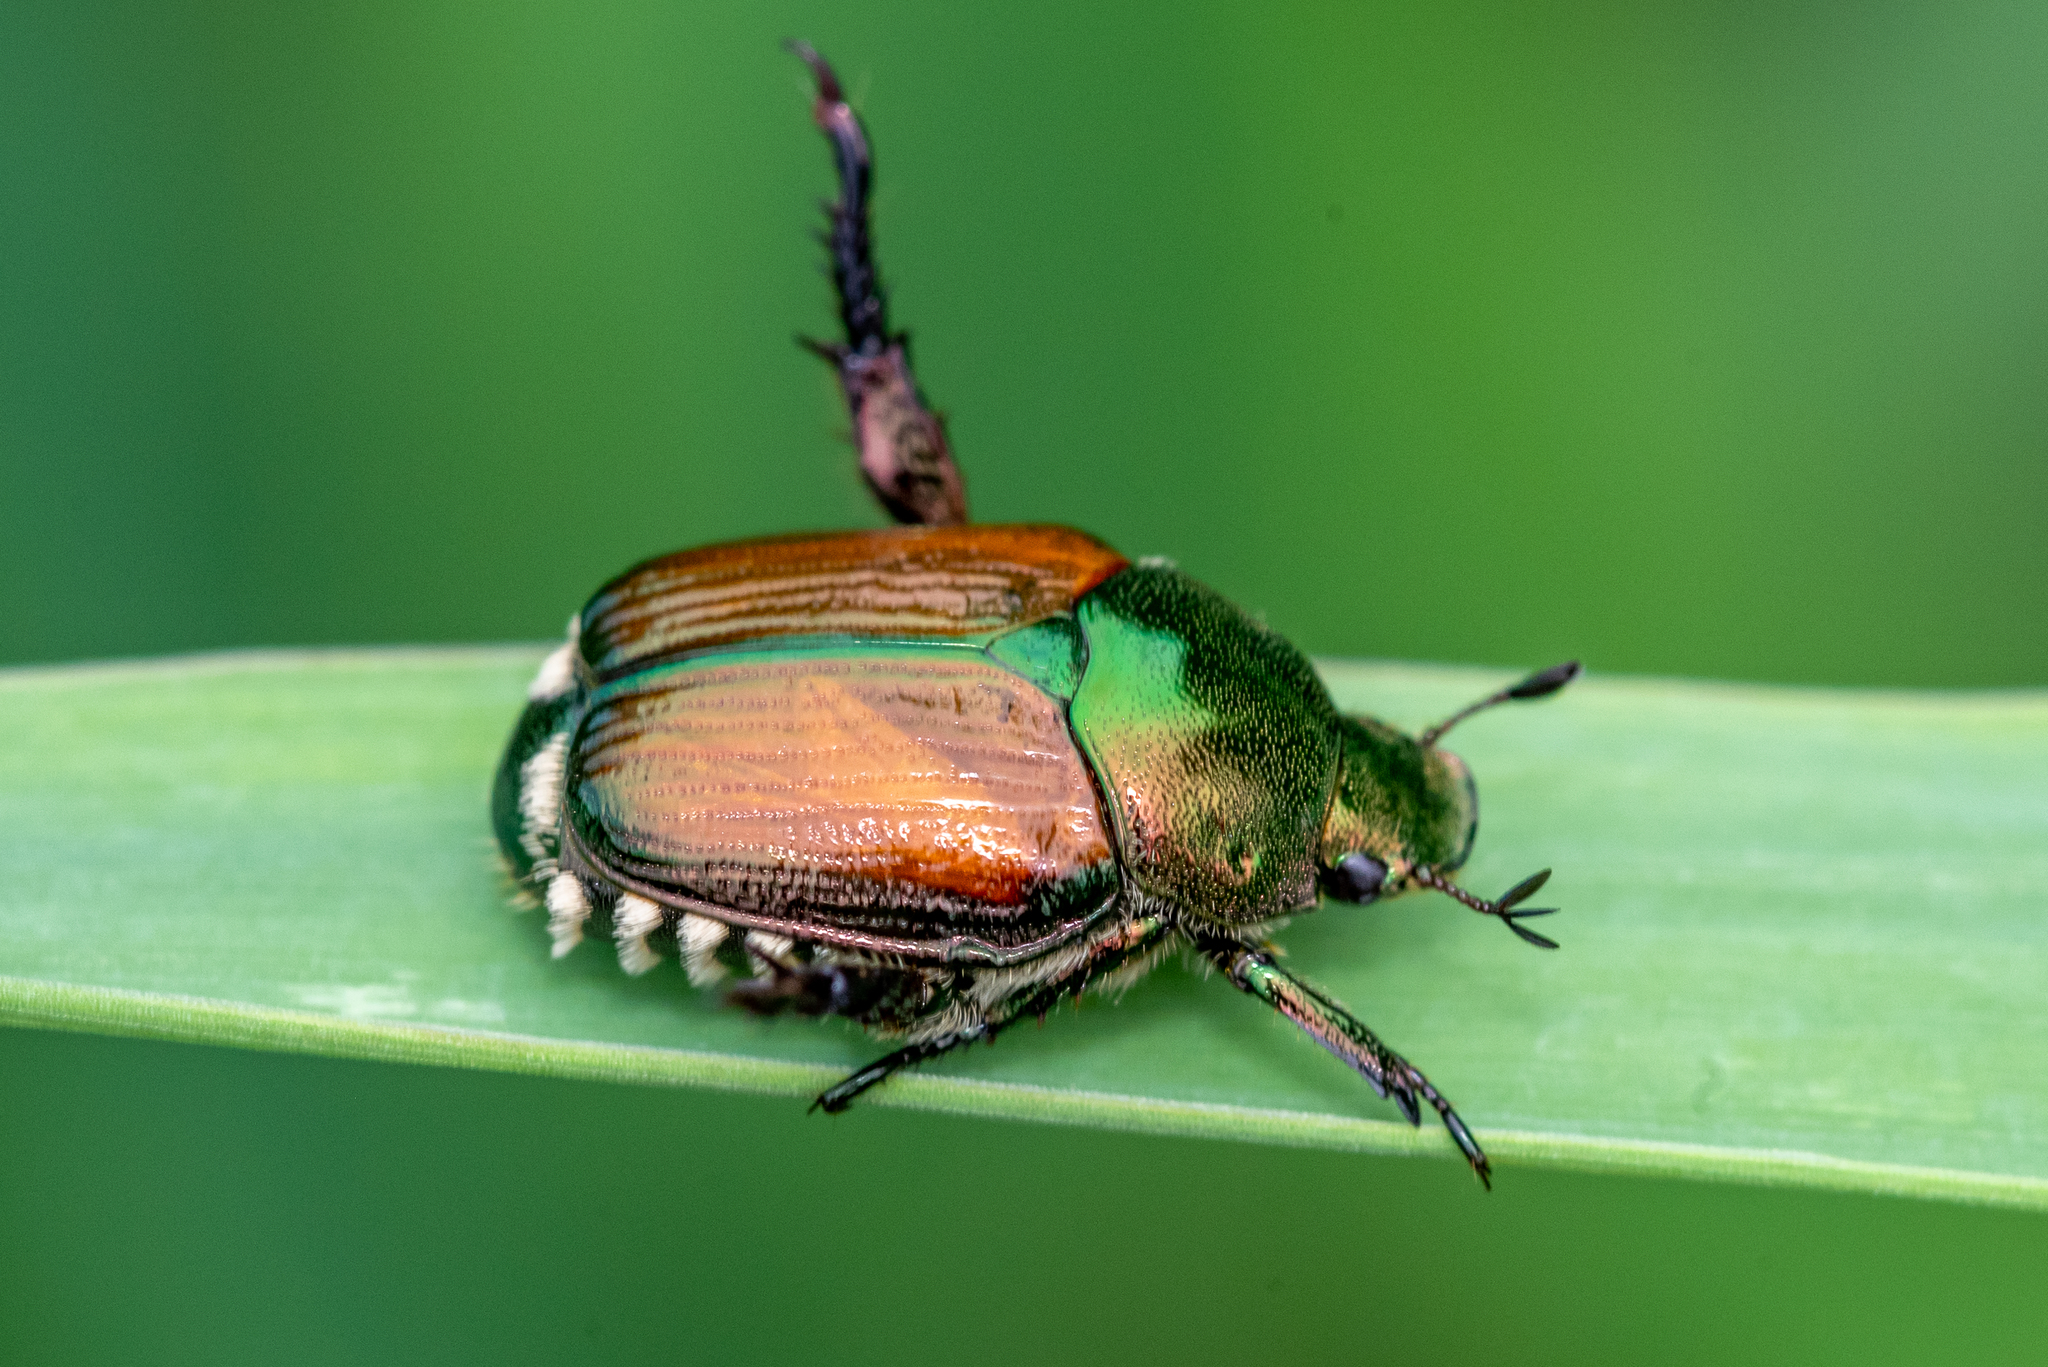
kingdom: Animalia
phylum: Arthropoda
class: Insecta
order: Coleoptera
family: Scarabaeidae
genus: Popillia
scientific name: Popillia japonica
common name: Japanese beetle
